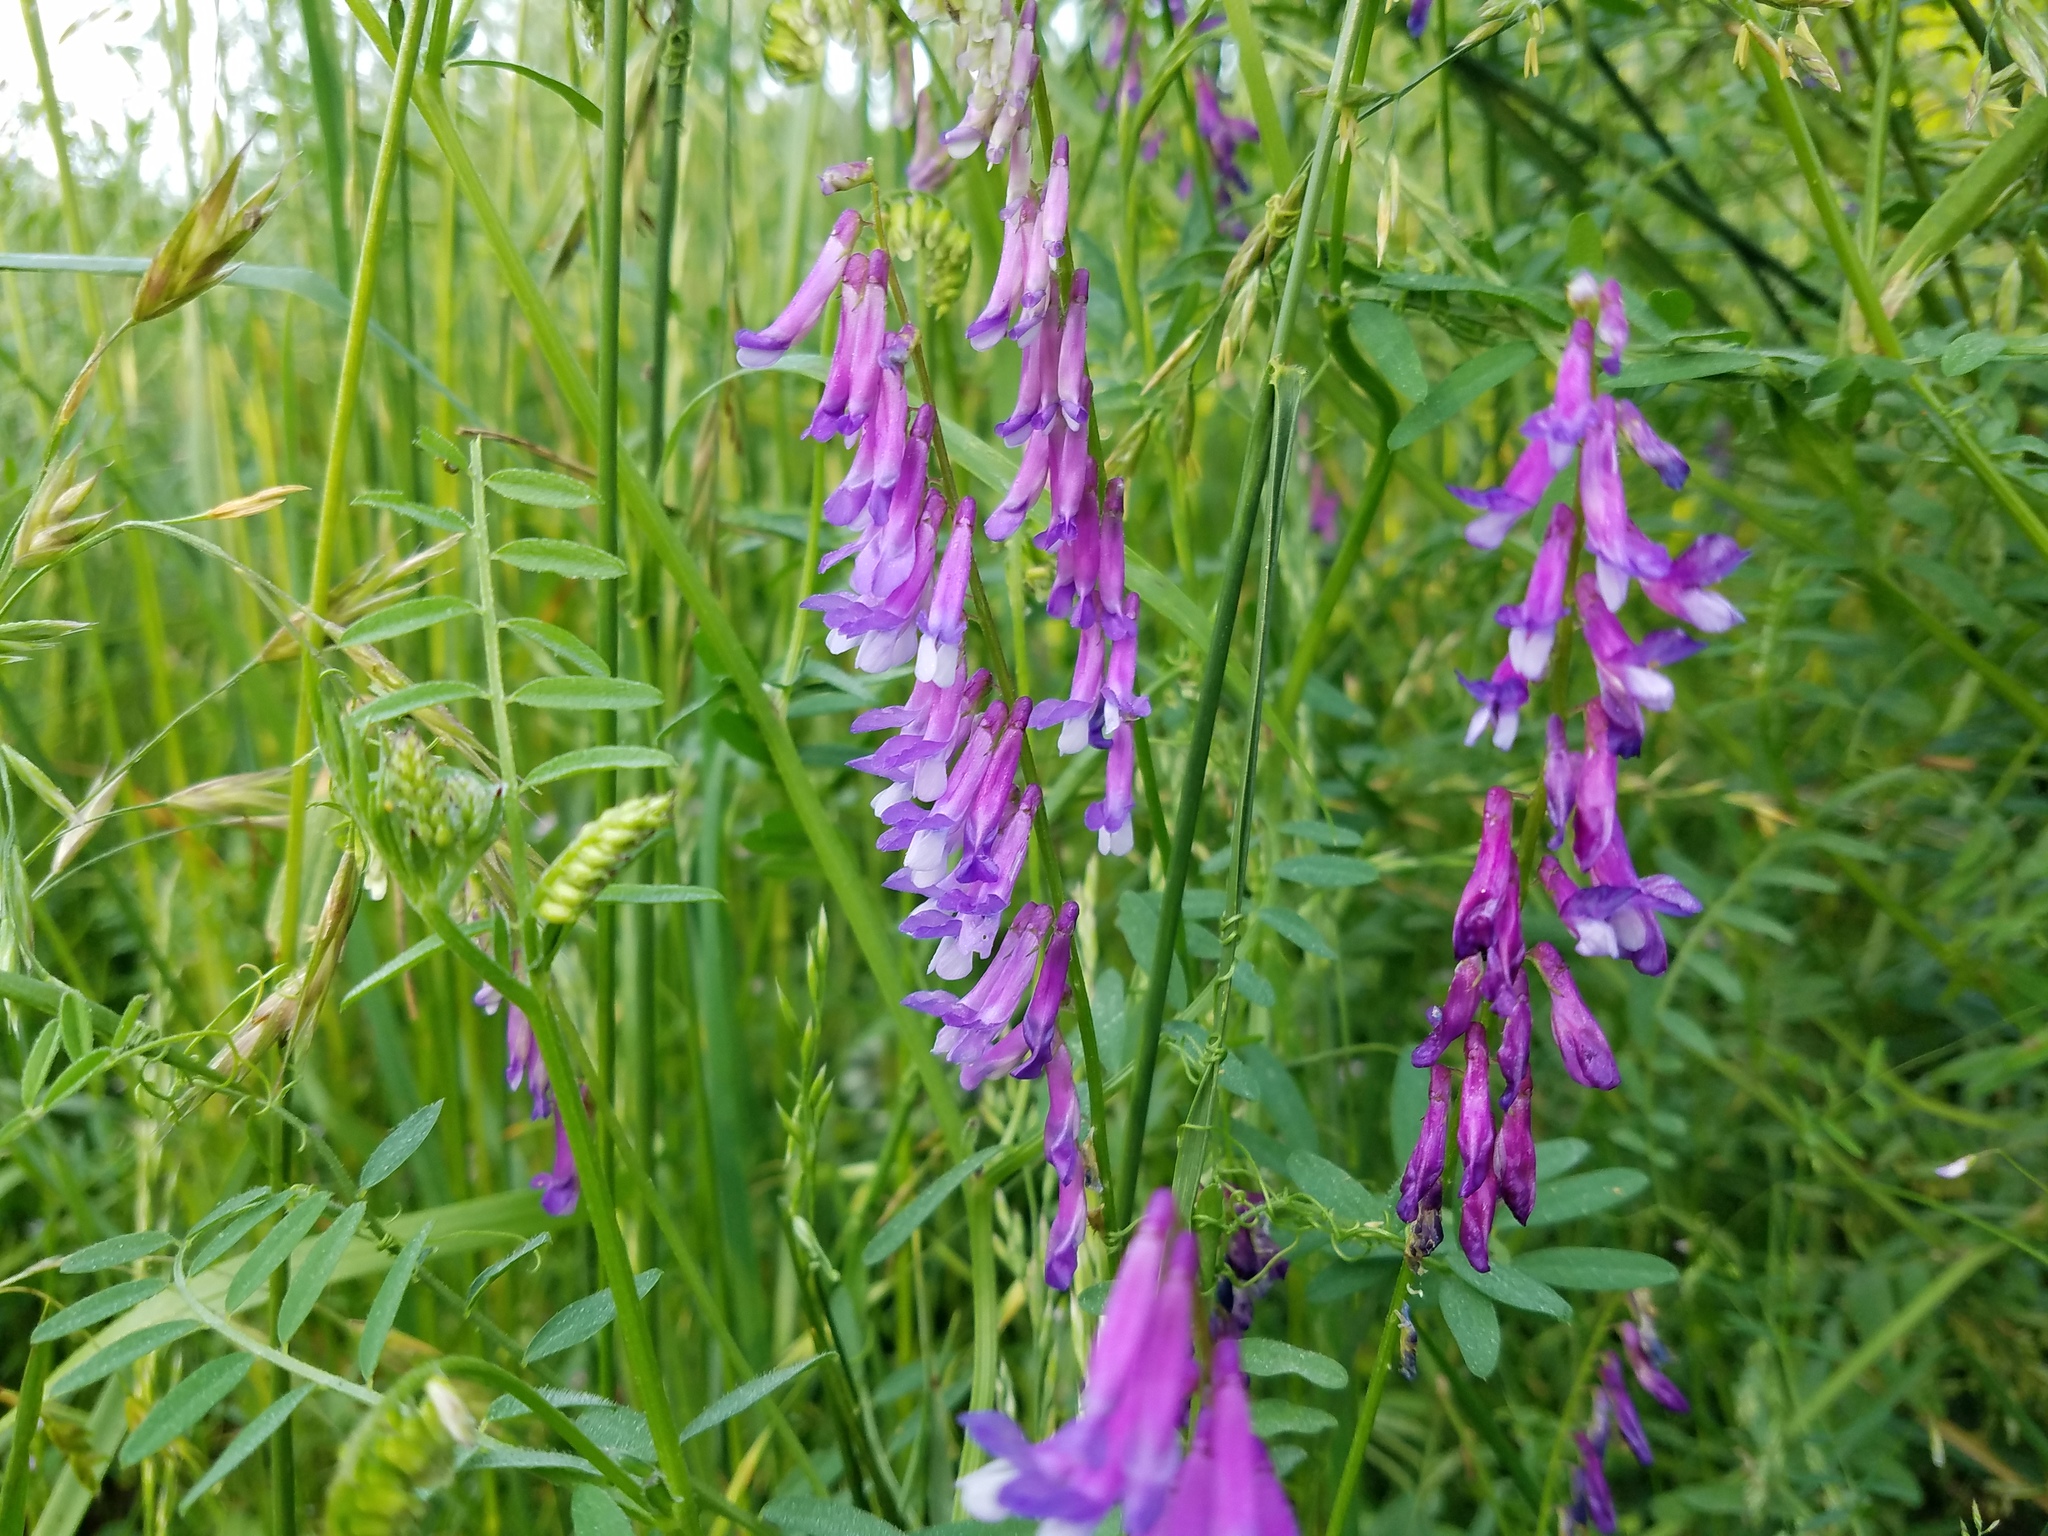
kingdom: Plantae
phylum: Tracheophyta
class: Magnoliopsida
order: Fabales
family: Fabaceae
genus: Vicia
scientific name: Vicia villosa
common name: Fodder vetch
